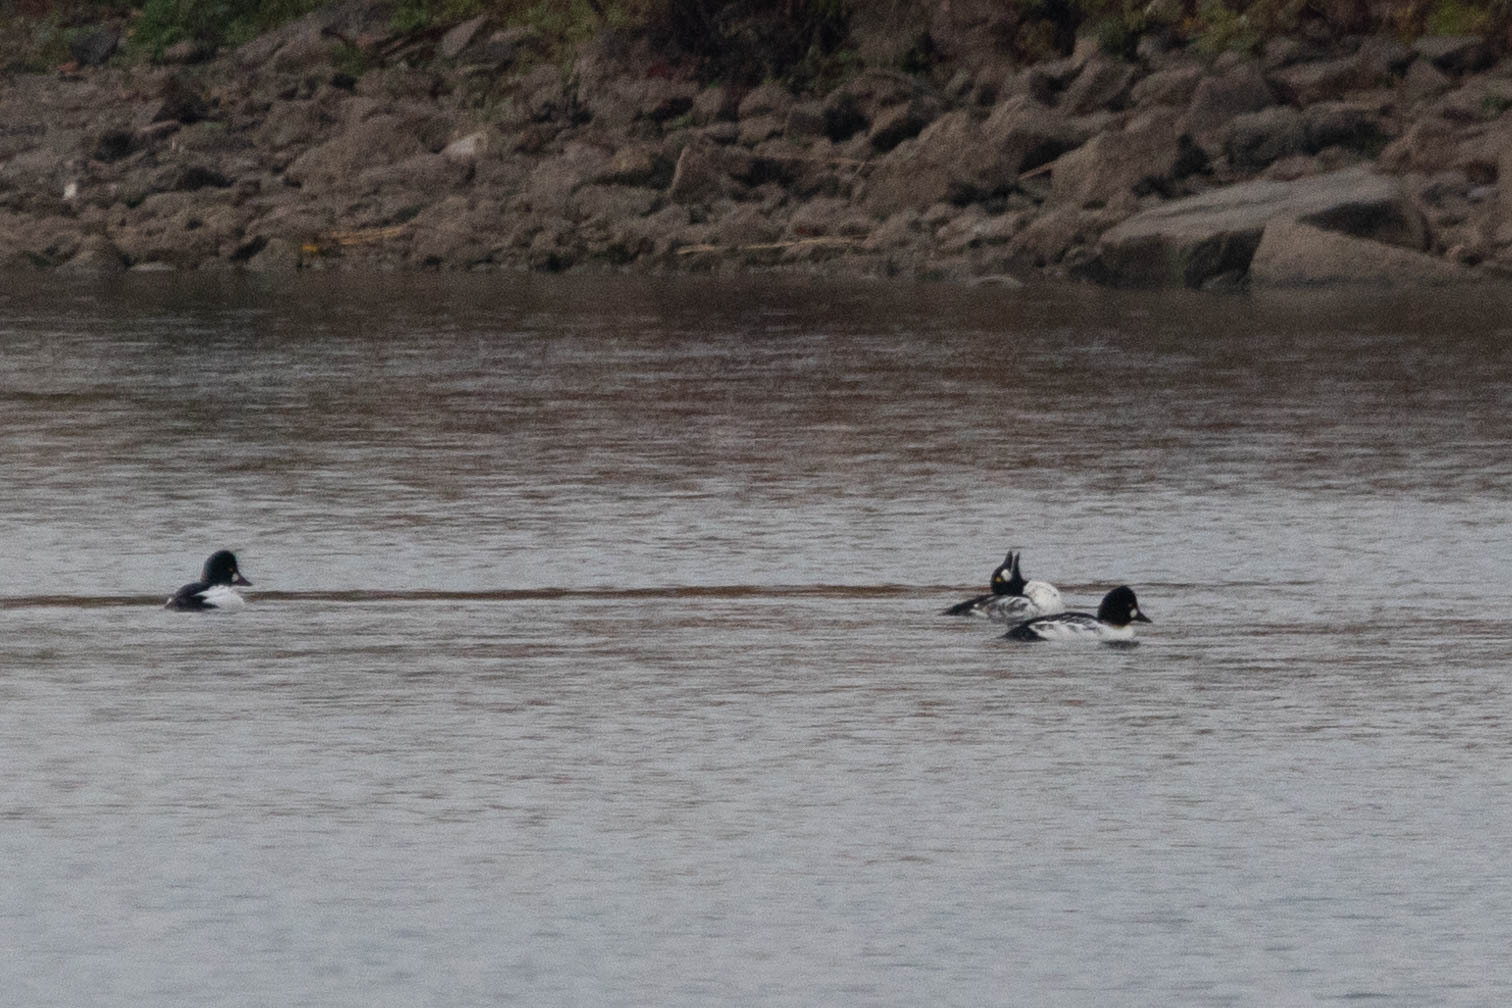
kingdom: Animalia
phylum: Chordata
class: Aves
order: Anseriformes
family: Anatidae
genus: Bucephala
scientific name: Bucephala clangula
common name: Common goldeneye
